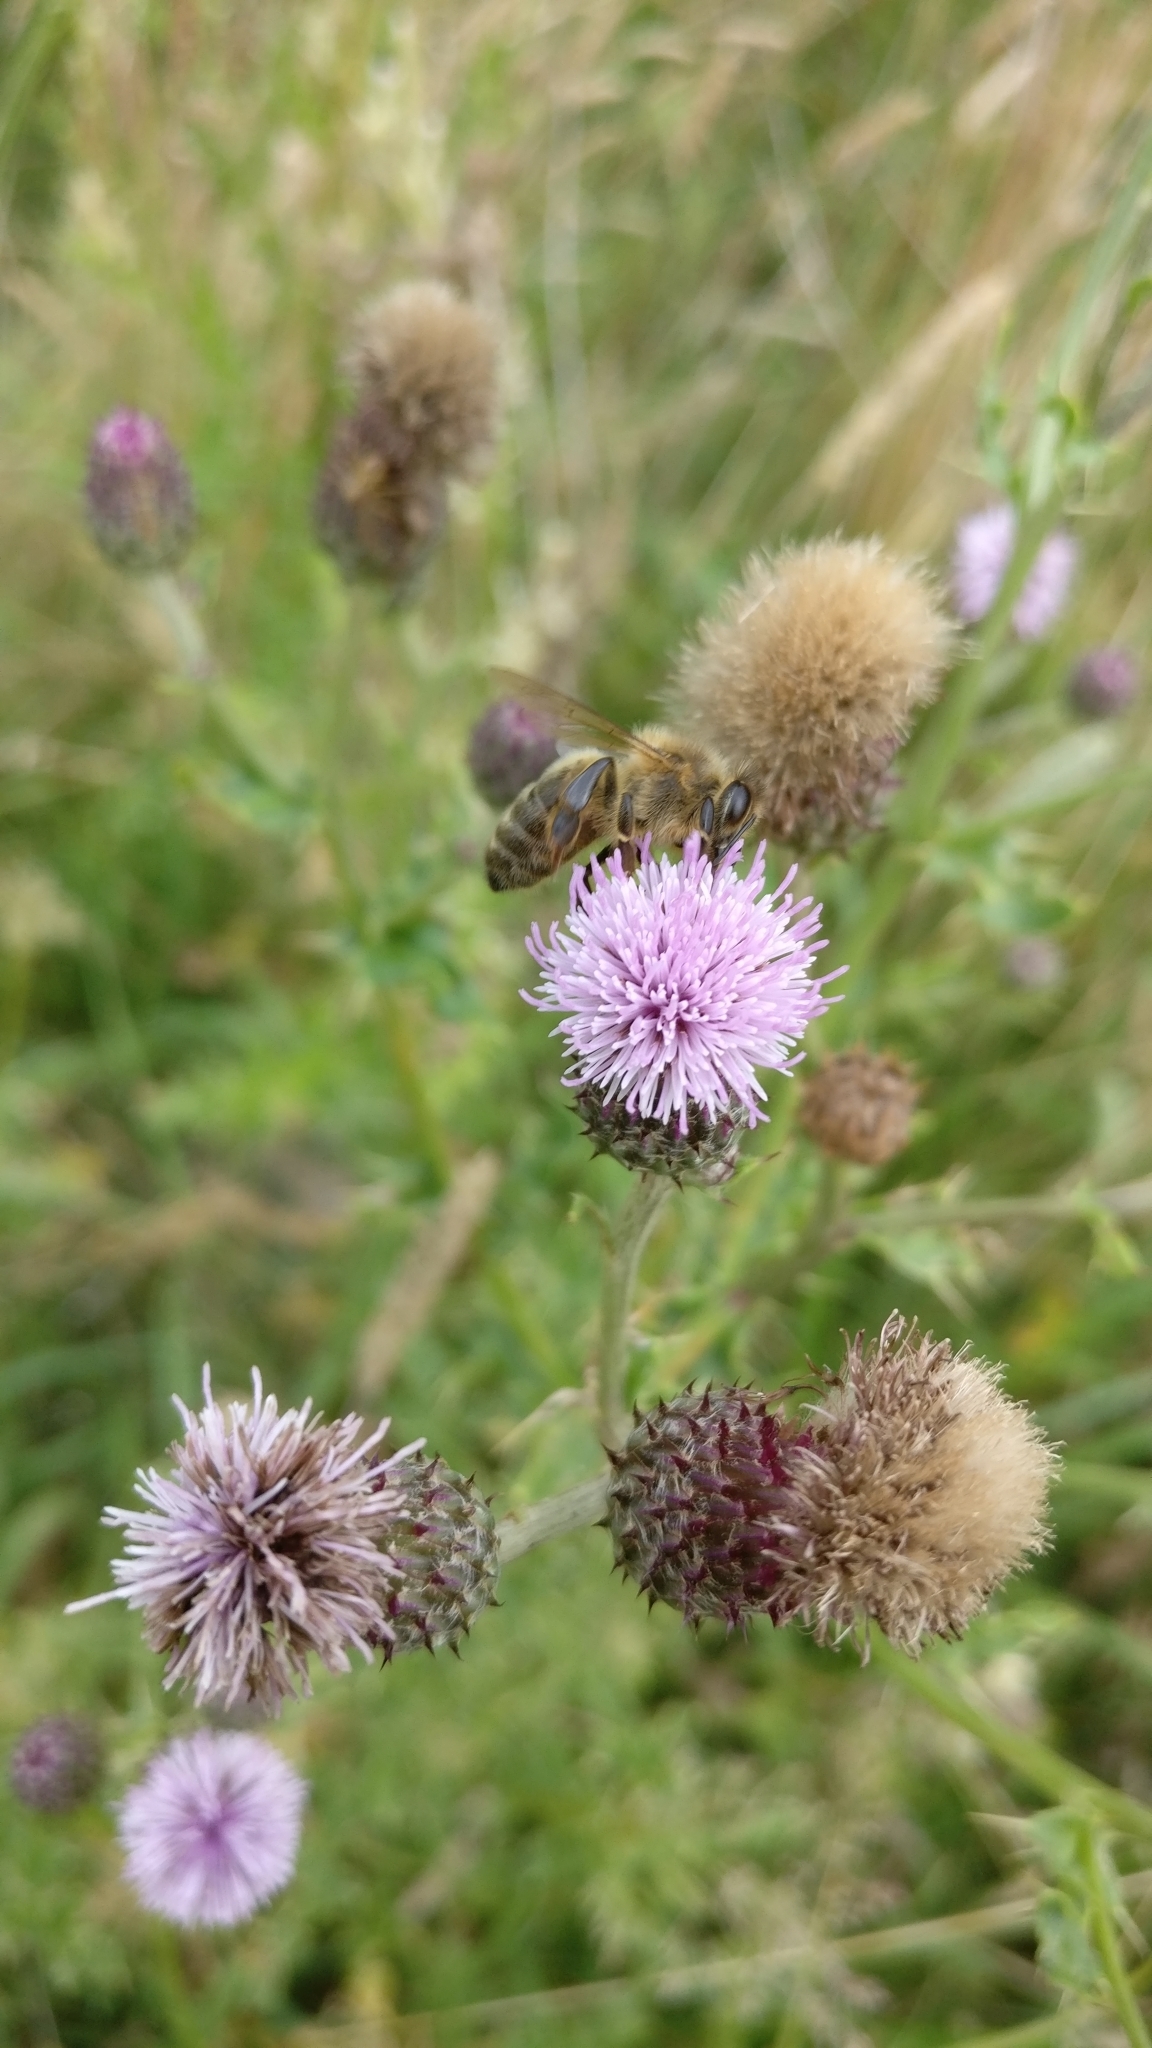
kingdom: Animalia
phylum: Arthropoda
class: Insecta
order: Hymenoptera
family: Apidae
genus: Apis
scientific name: Apis mellifera
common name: Honey bee
